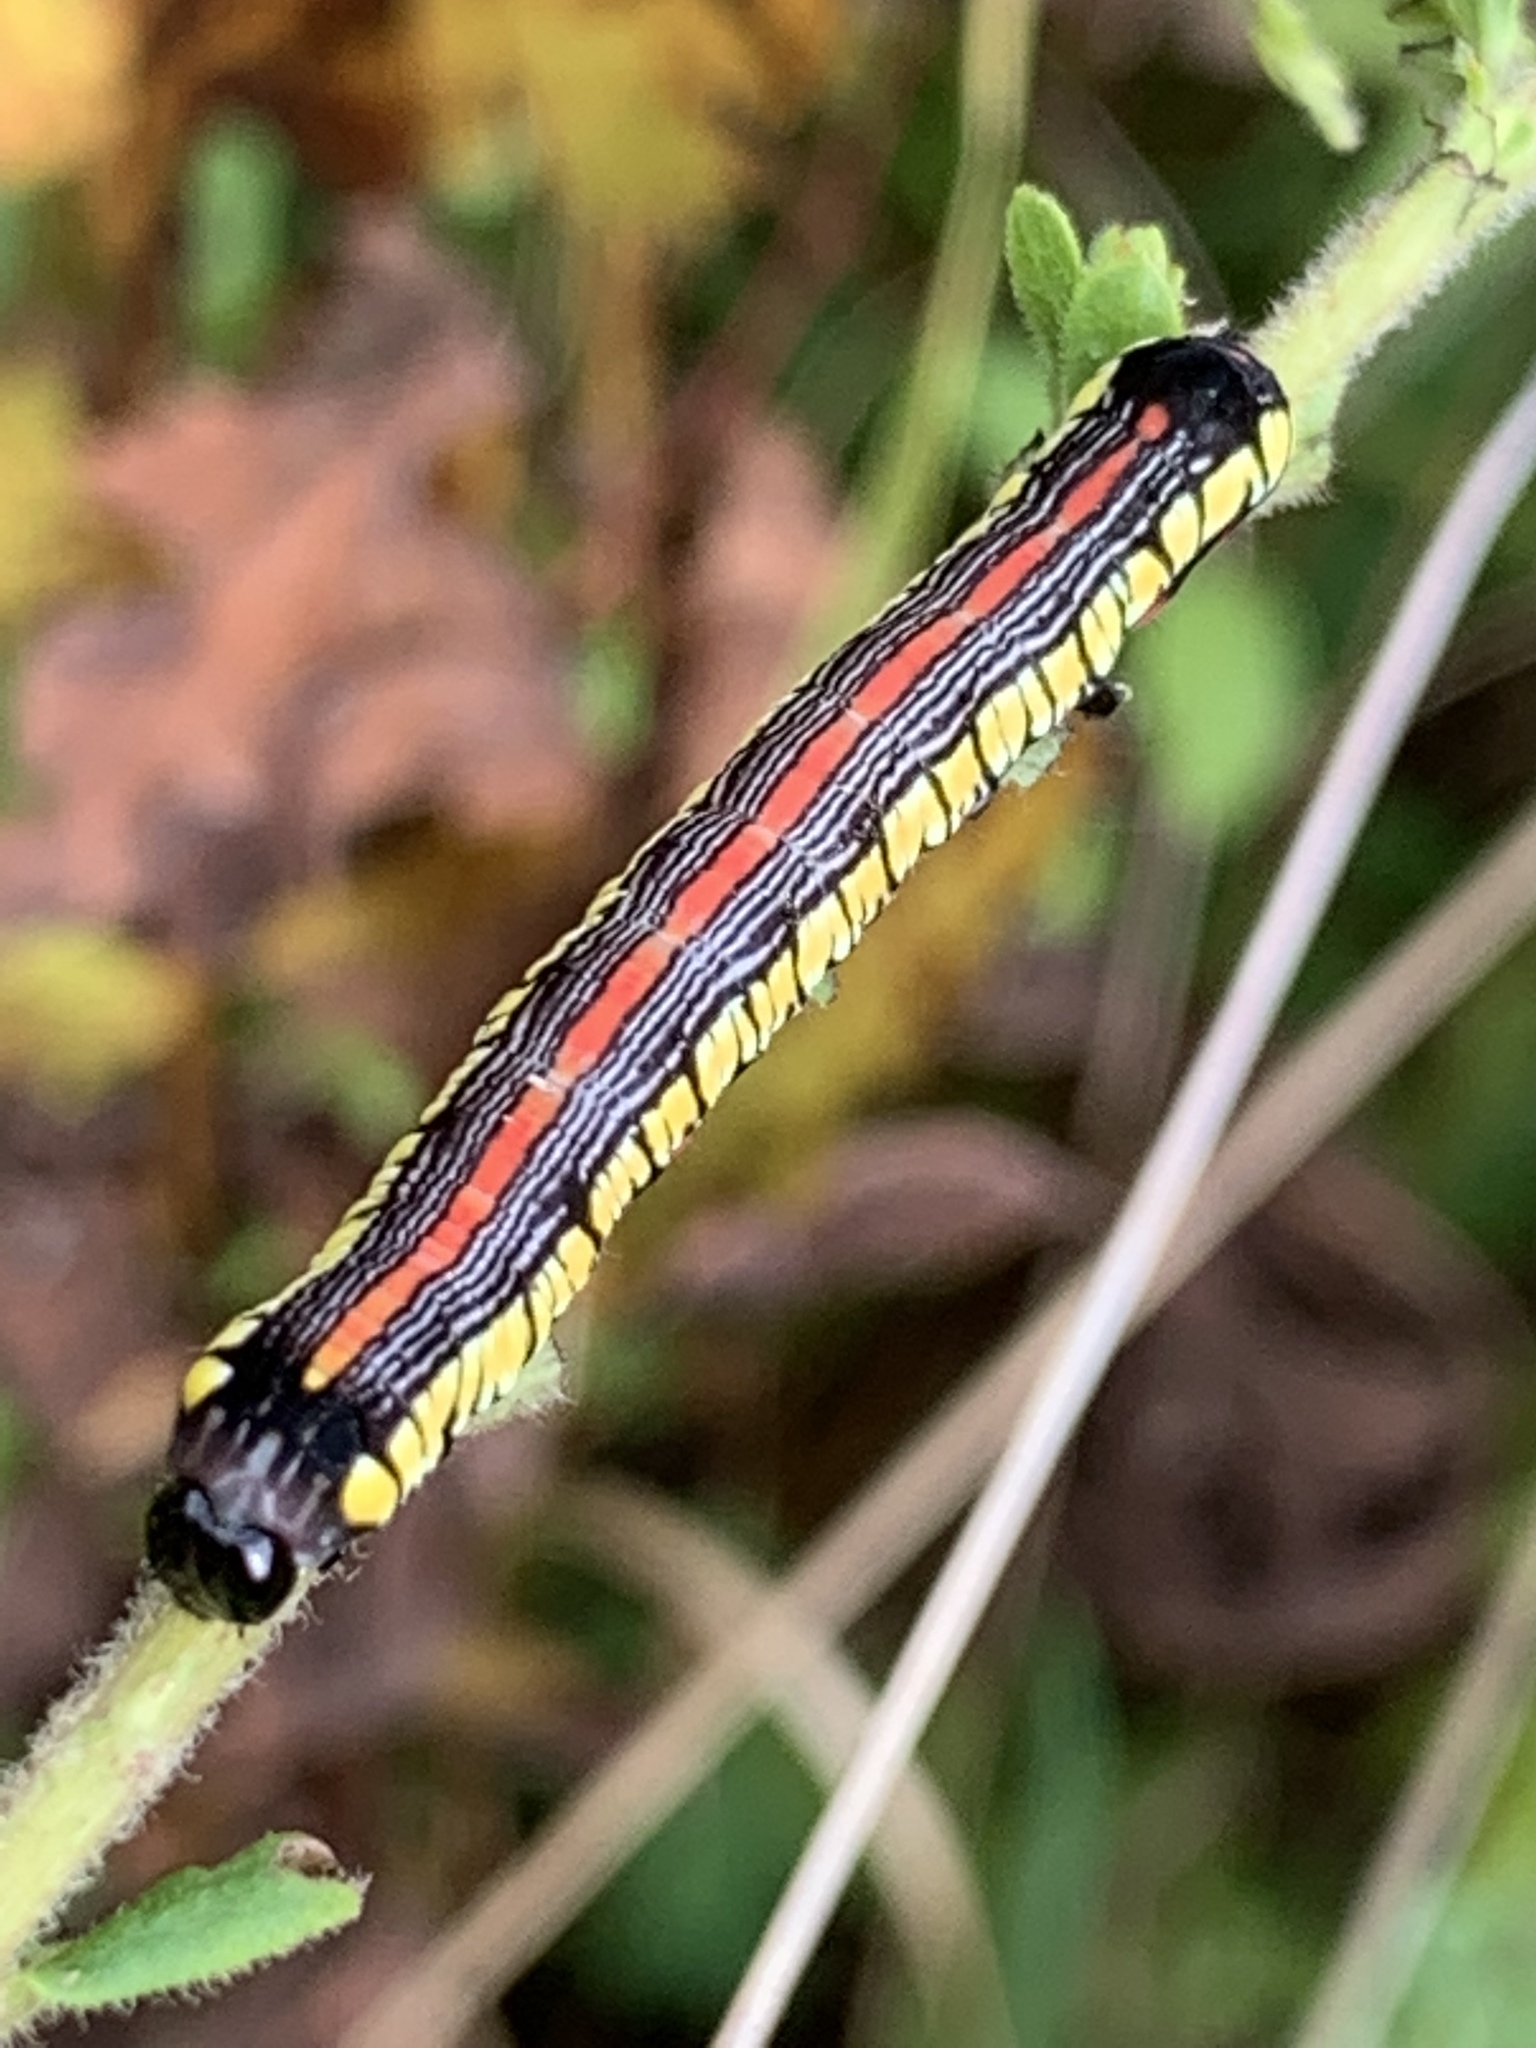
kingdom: Animalia
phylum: Arthropoda
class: Insecta
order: Lepidoptera
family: Noctuidae
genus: Cucullia
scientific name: Cucullia convexipennis
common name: Brown-hooded owlet
